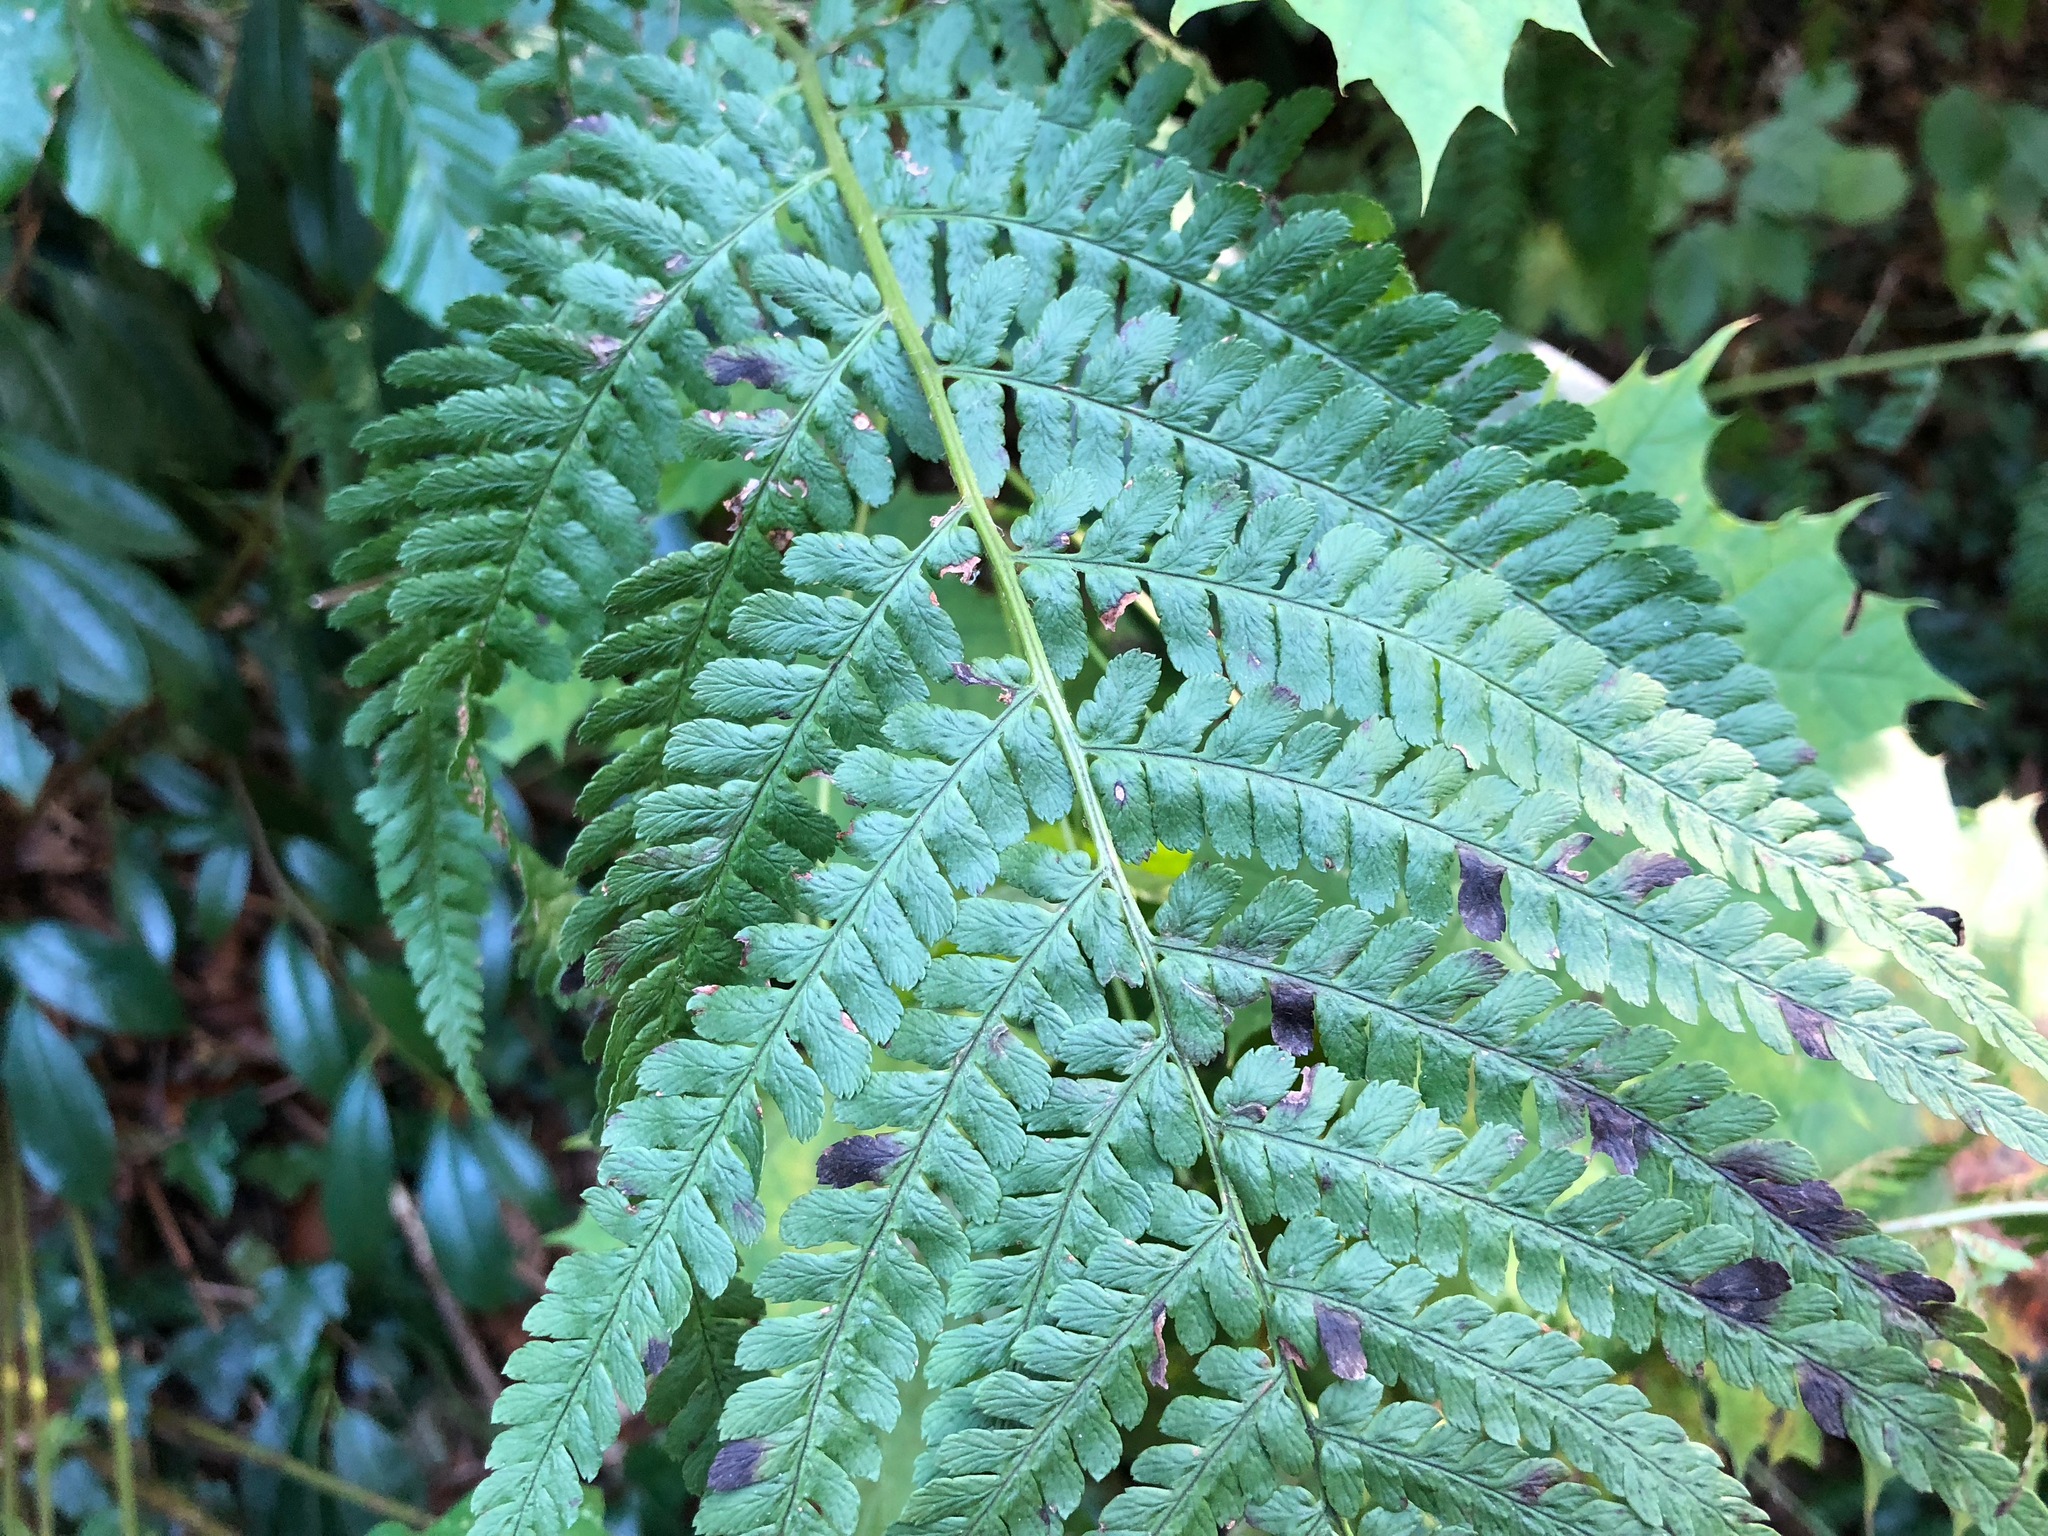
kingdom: Plantae
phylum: Tracheophyta
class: Polypodiopsida
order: Polypodiales
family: Dryopteridaceae
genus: Dryopteris
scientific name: Dryopteris filix-mas
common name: Male fern
